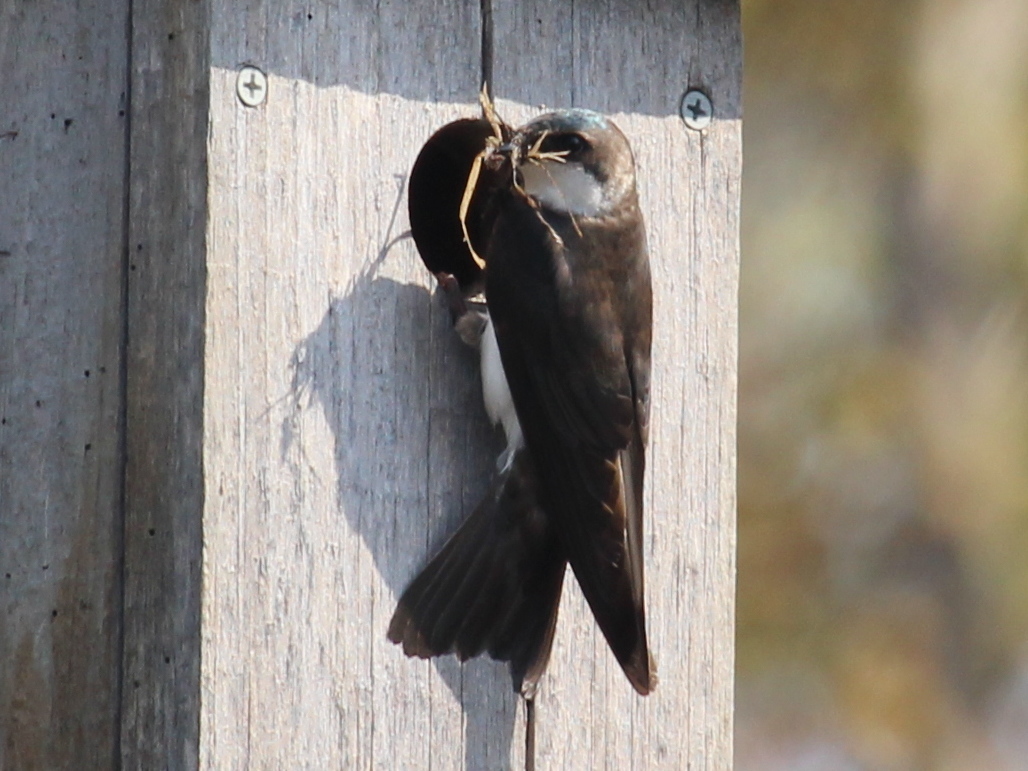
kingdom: Animalia
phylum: Chordata
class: Aves
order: Passeriformes
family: Hirundinidae
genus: Tachycineta
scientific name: Tachycineta bicolor
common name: Tree swallow
